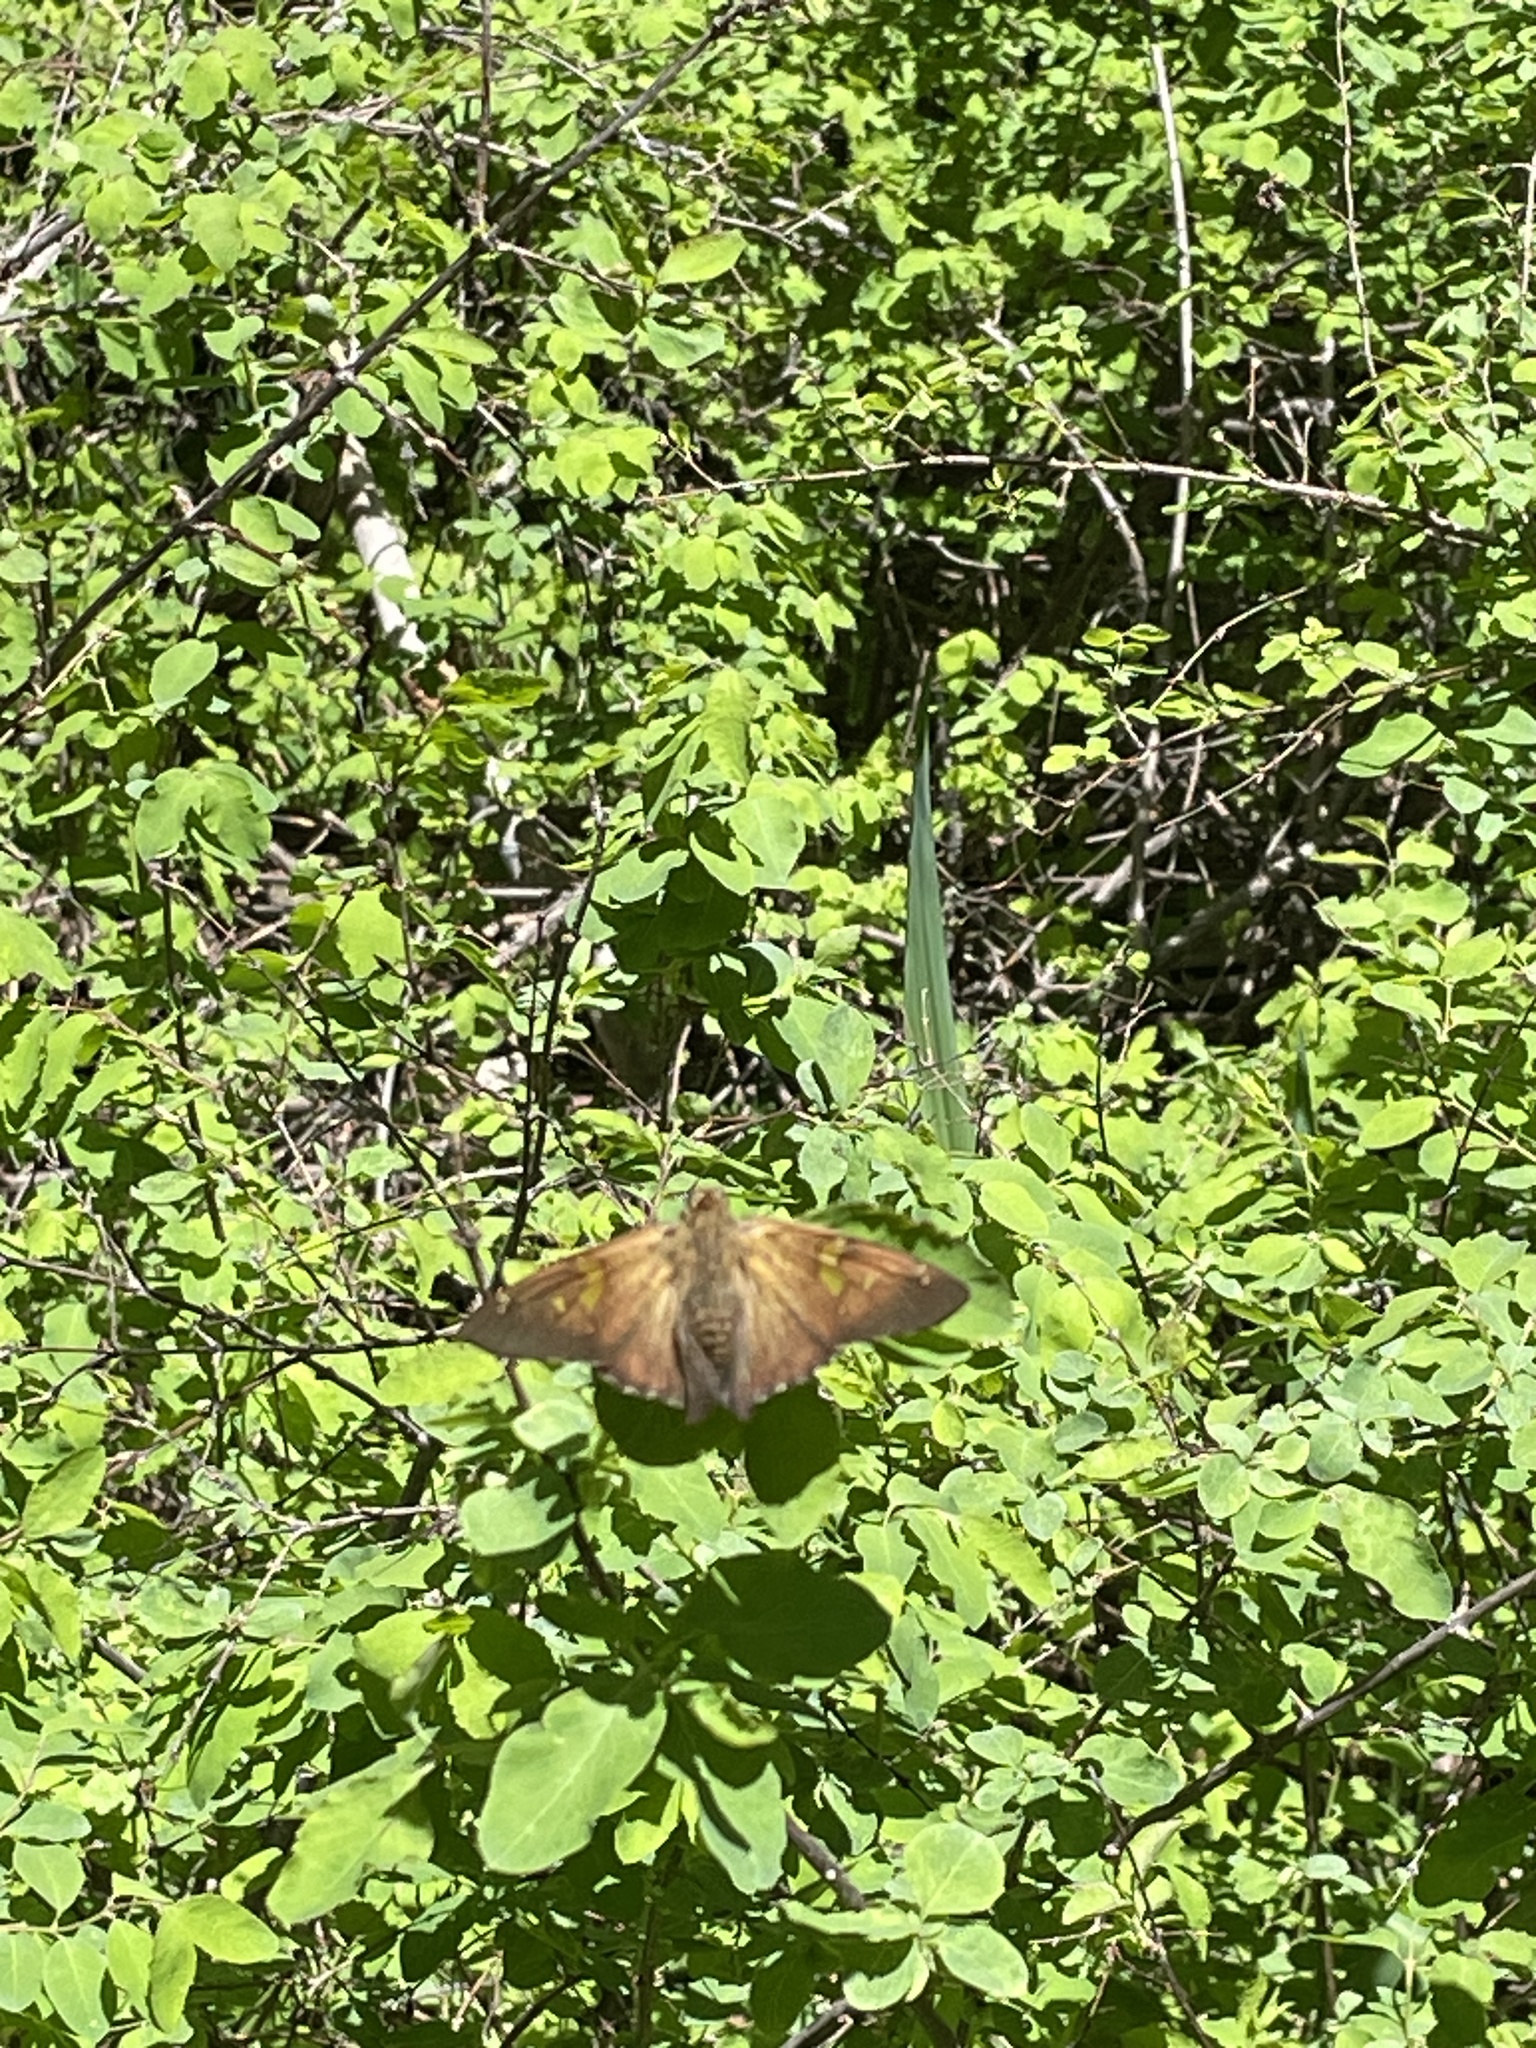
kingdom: Animalia
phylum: Arthropoda
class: Insecta
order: Lepidoptera
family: Hesperiidae
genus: Epargyreus
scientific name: Epargyreus clarus
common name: Silver-spotted skipper
